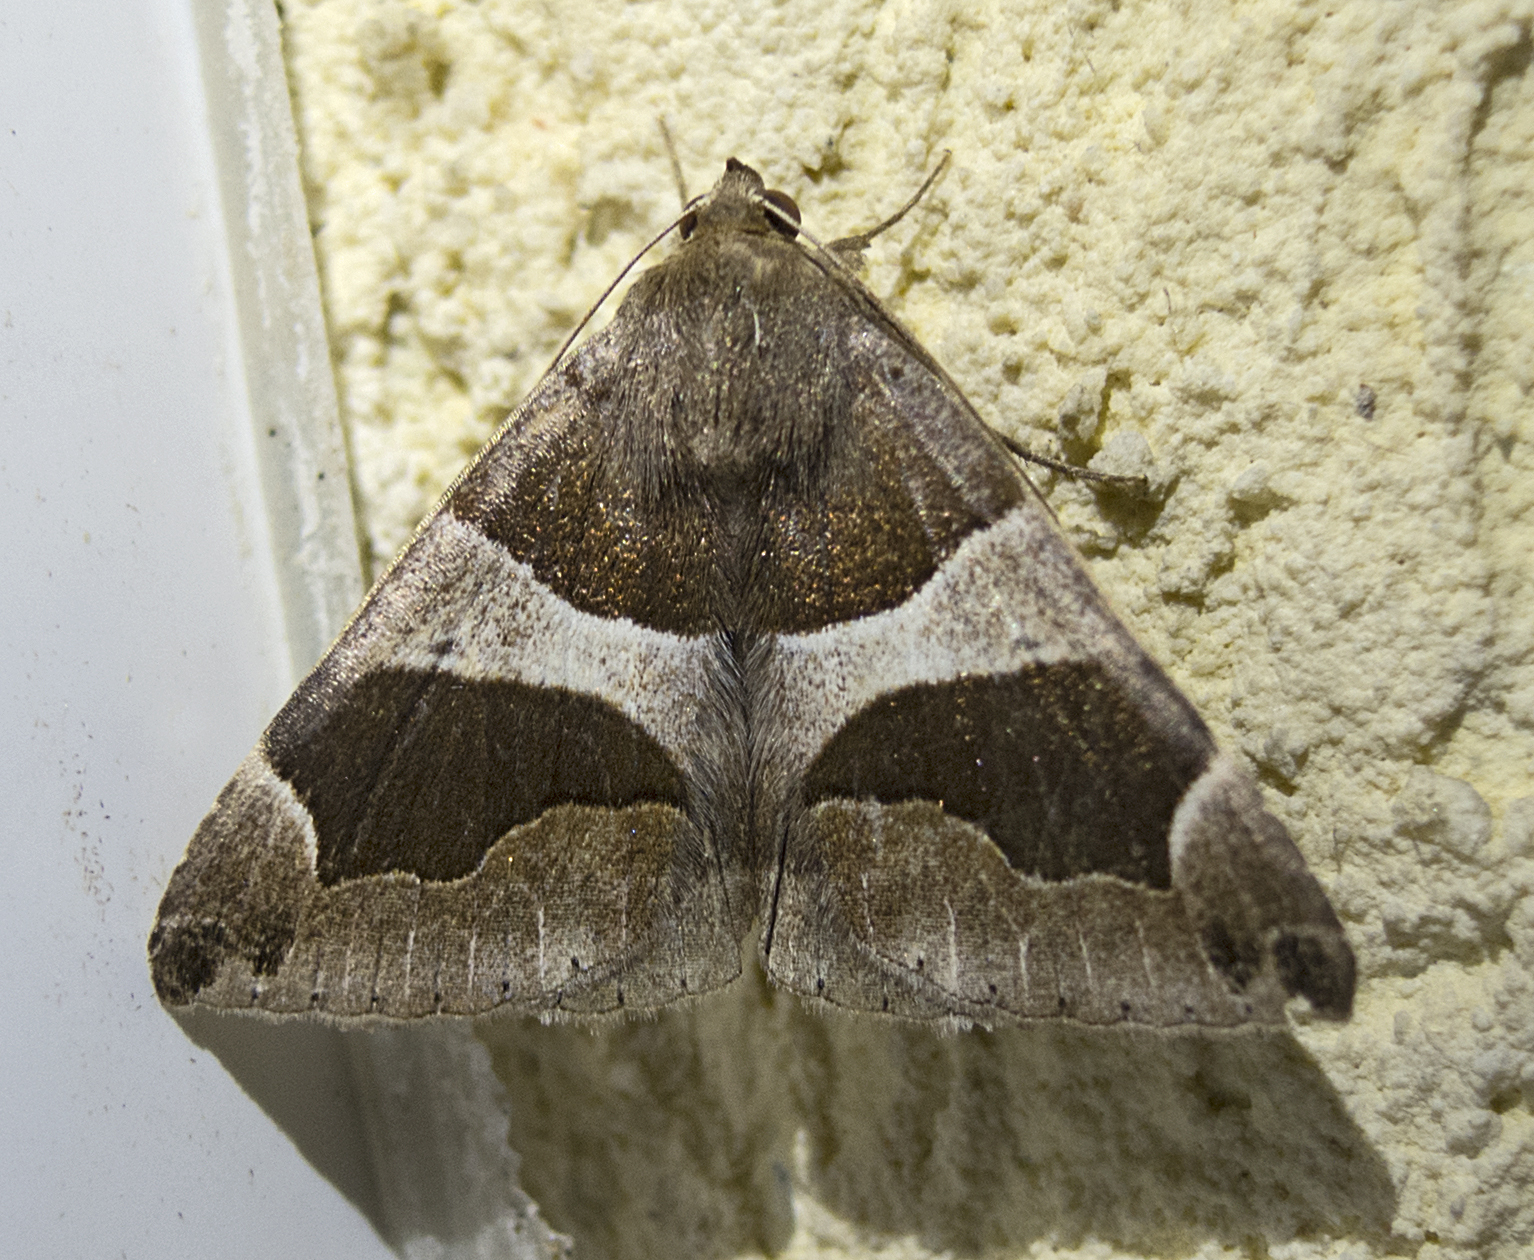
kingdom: Animalia
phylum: Arthropoda
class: Insecta
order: Lepidoptera
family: Erebidae
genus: Dysgonia
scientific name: Dysgonia algira
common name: Passenger
